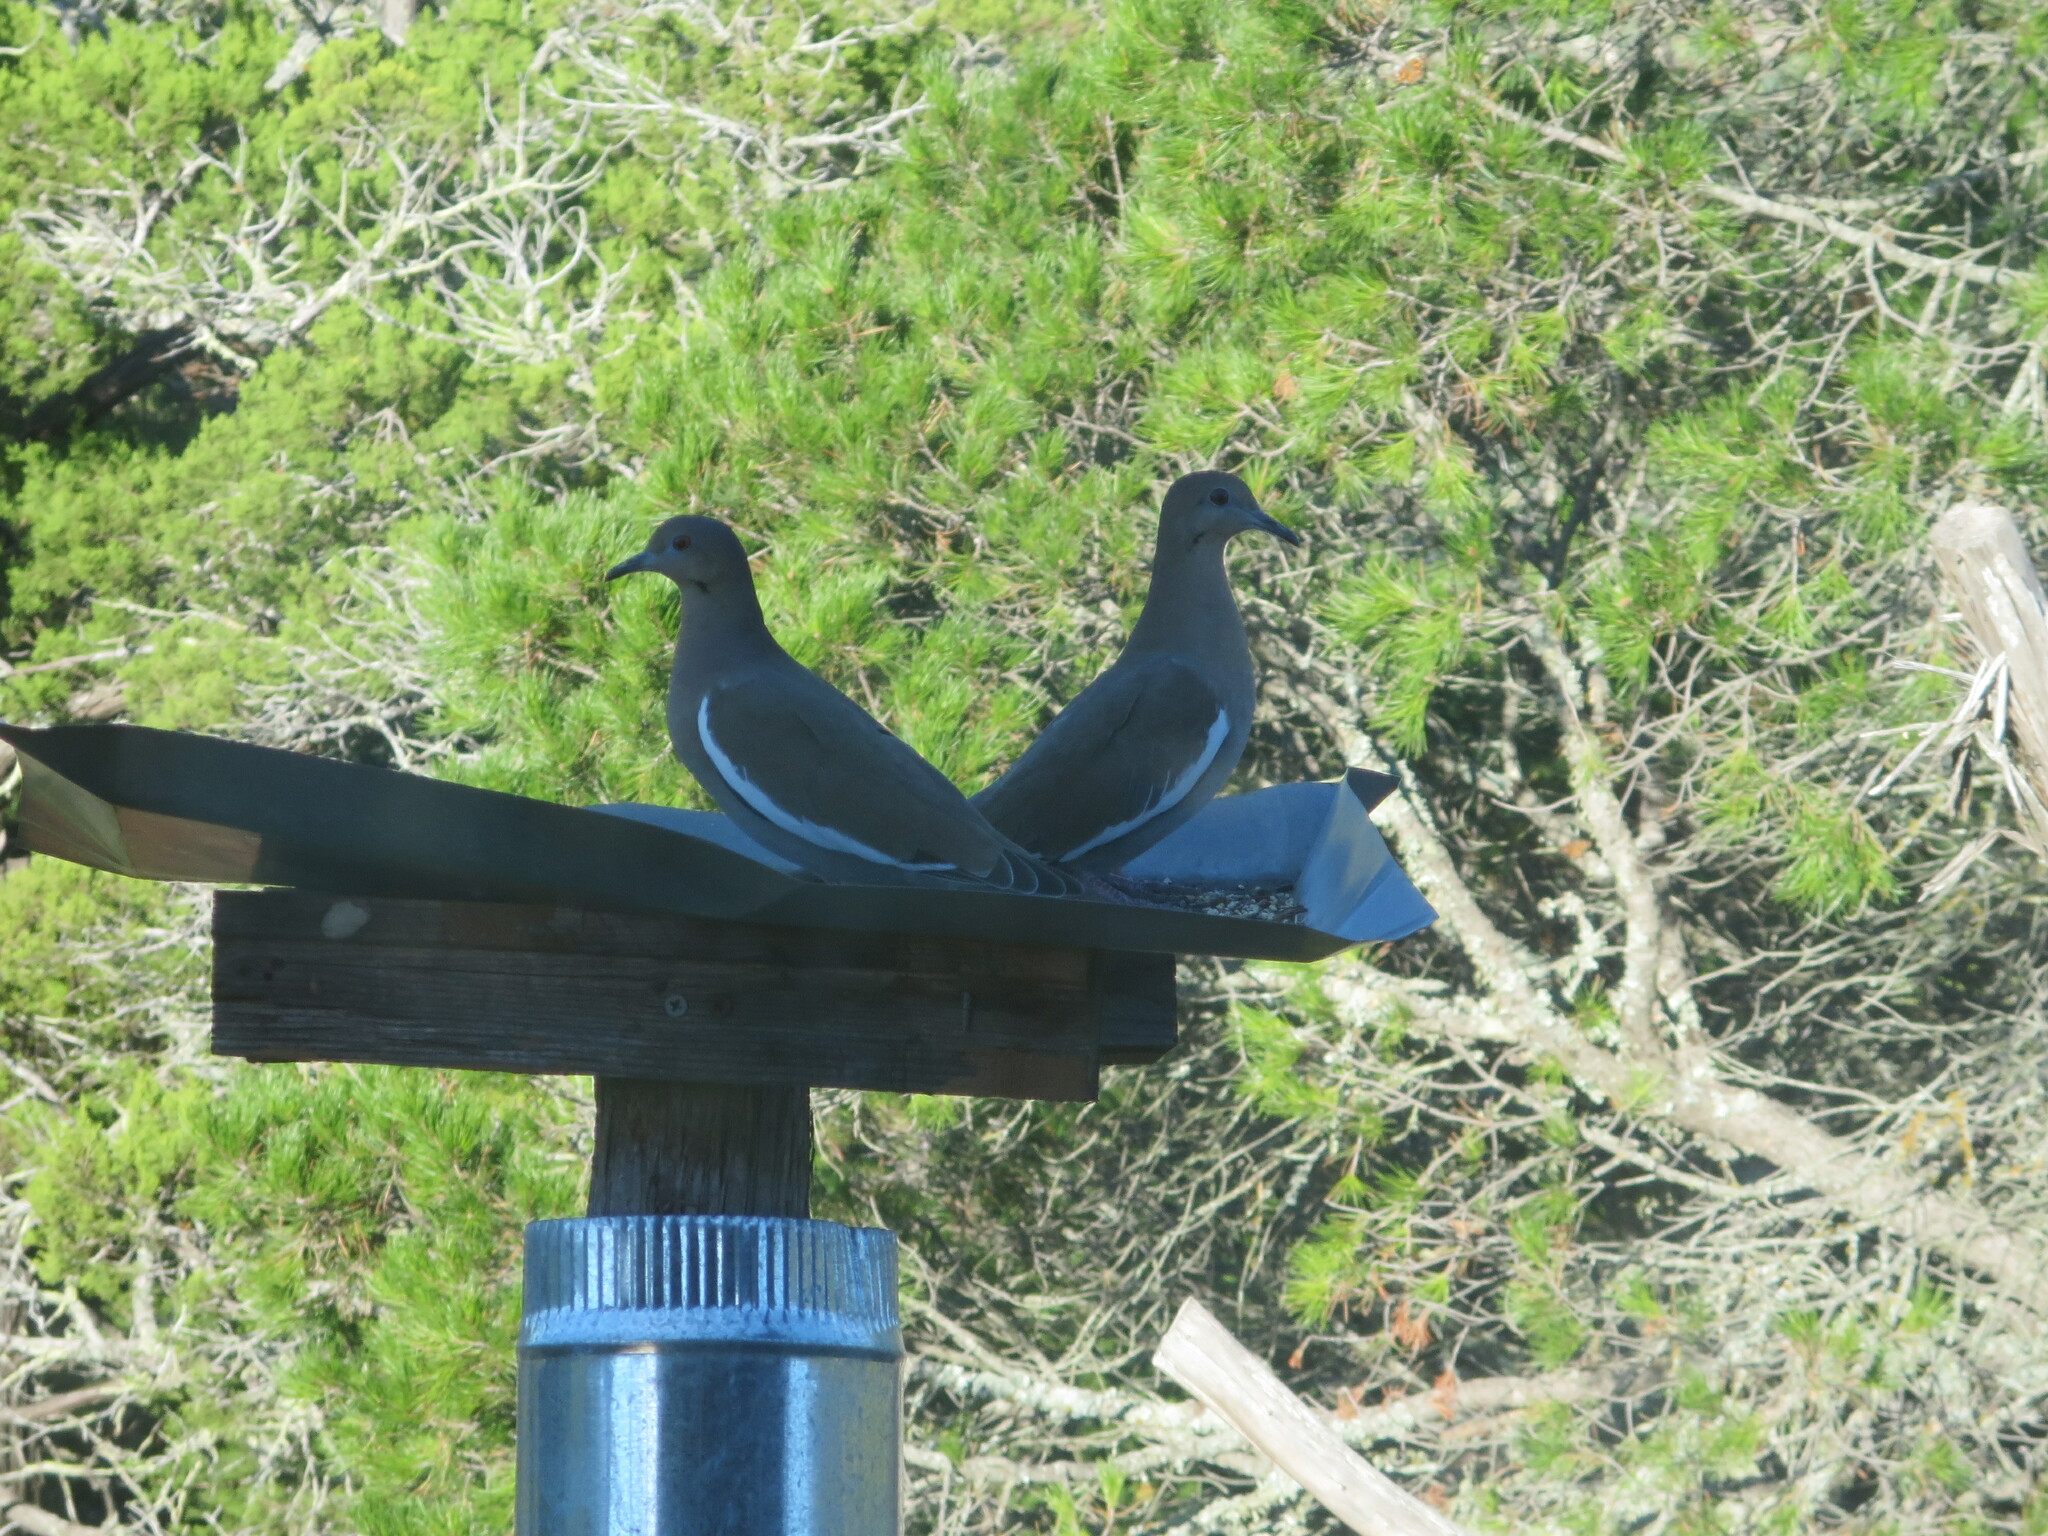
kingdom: Animalia
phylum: Chordata
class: Aves
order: Columbiformes
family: Columbidae
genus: Zenaida
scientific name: Zenaida asiatica
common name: White-winged dove
